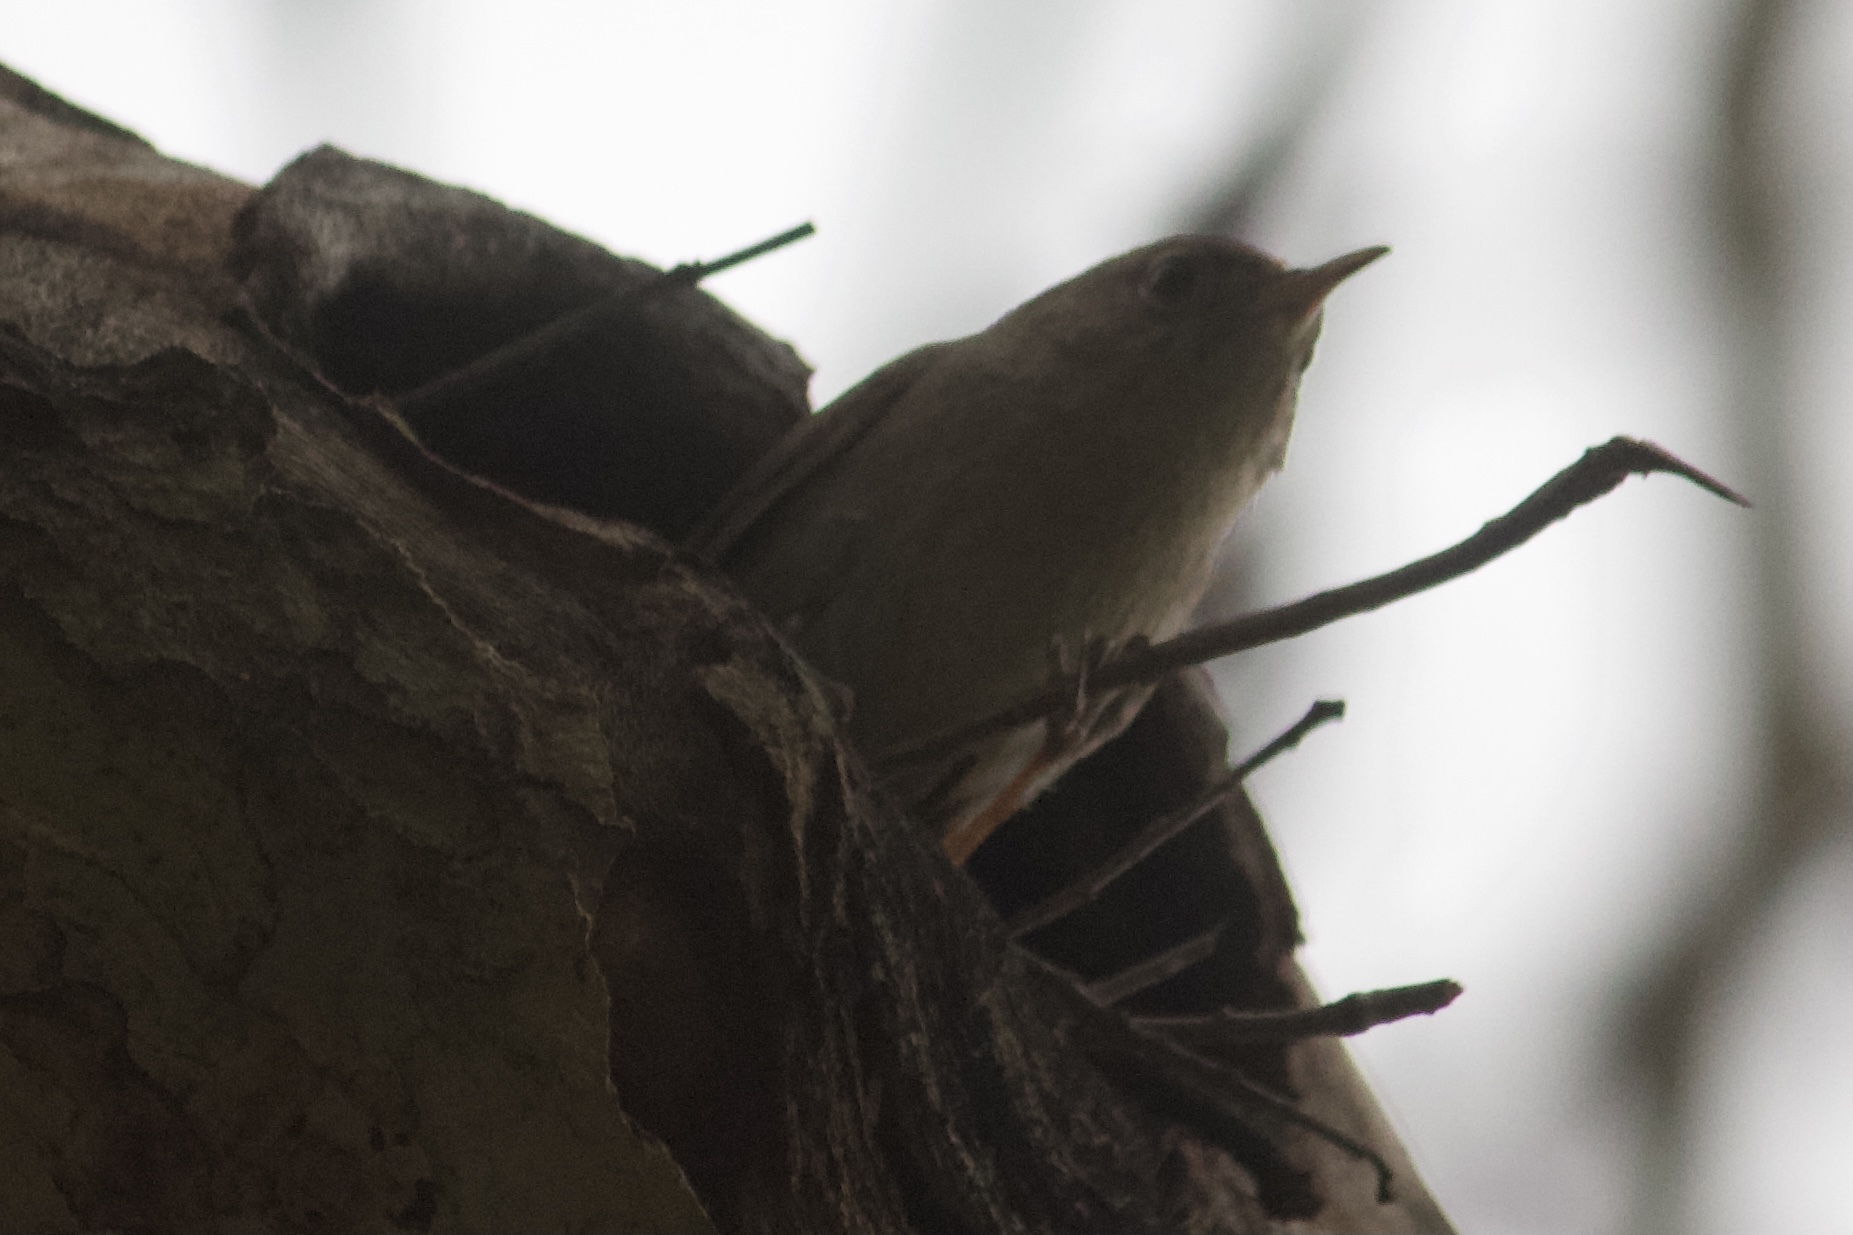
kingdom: Animalia
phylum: Chordata
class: Aves
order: Passeriformes
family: Troglodytidae
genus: Troglodytes
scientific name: Troglodytes aedon
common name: House wren
